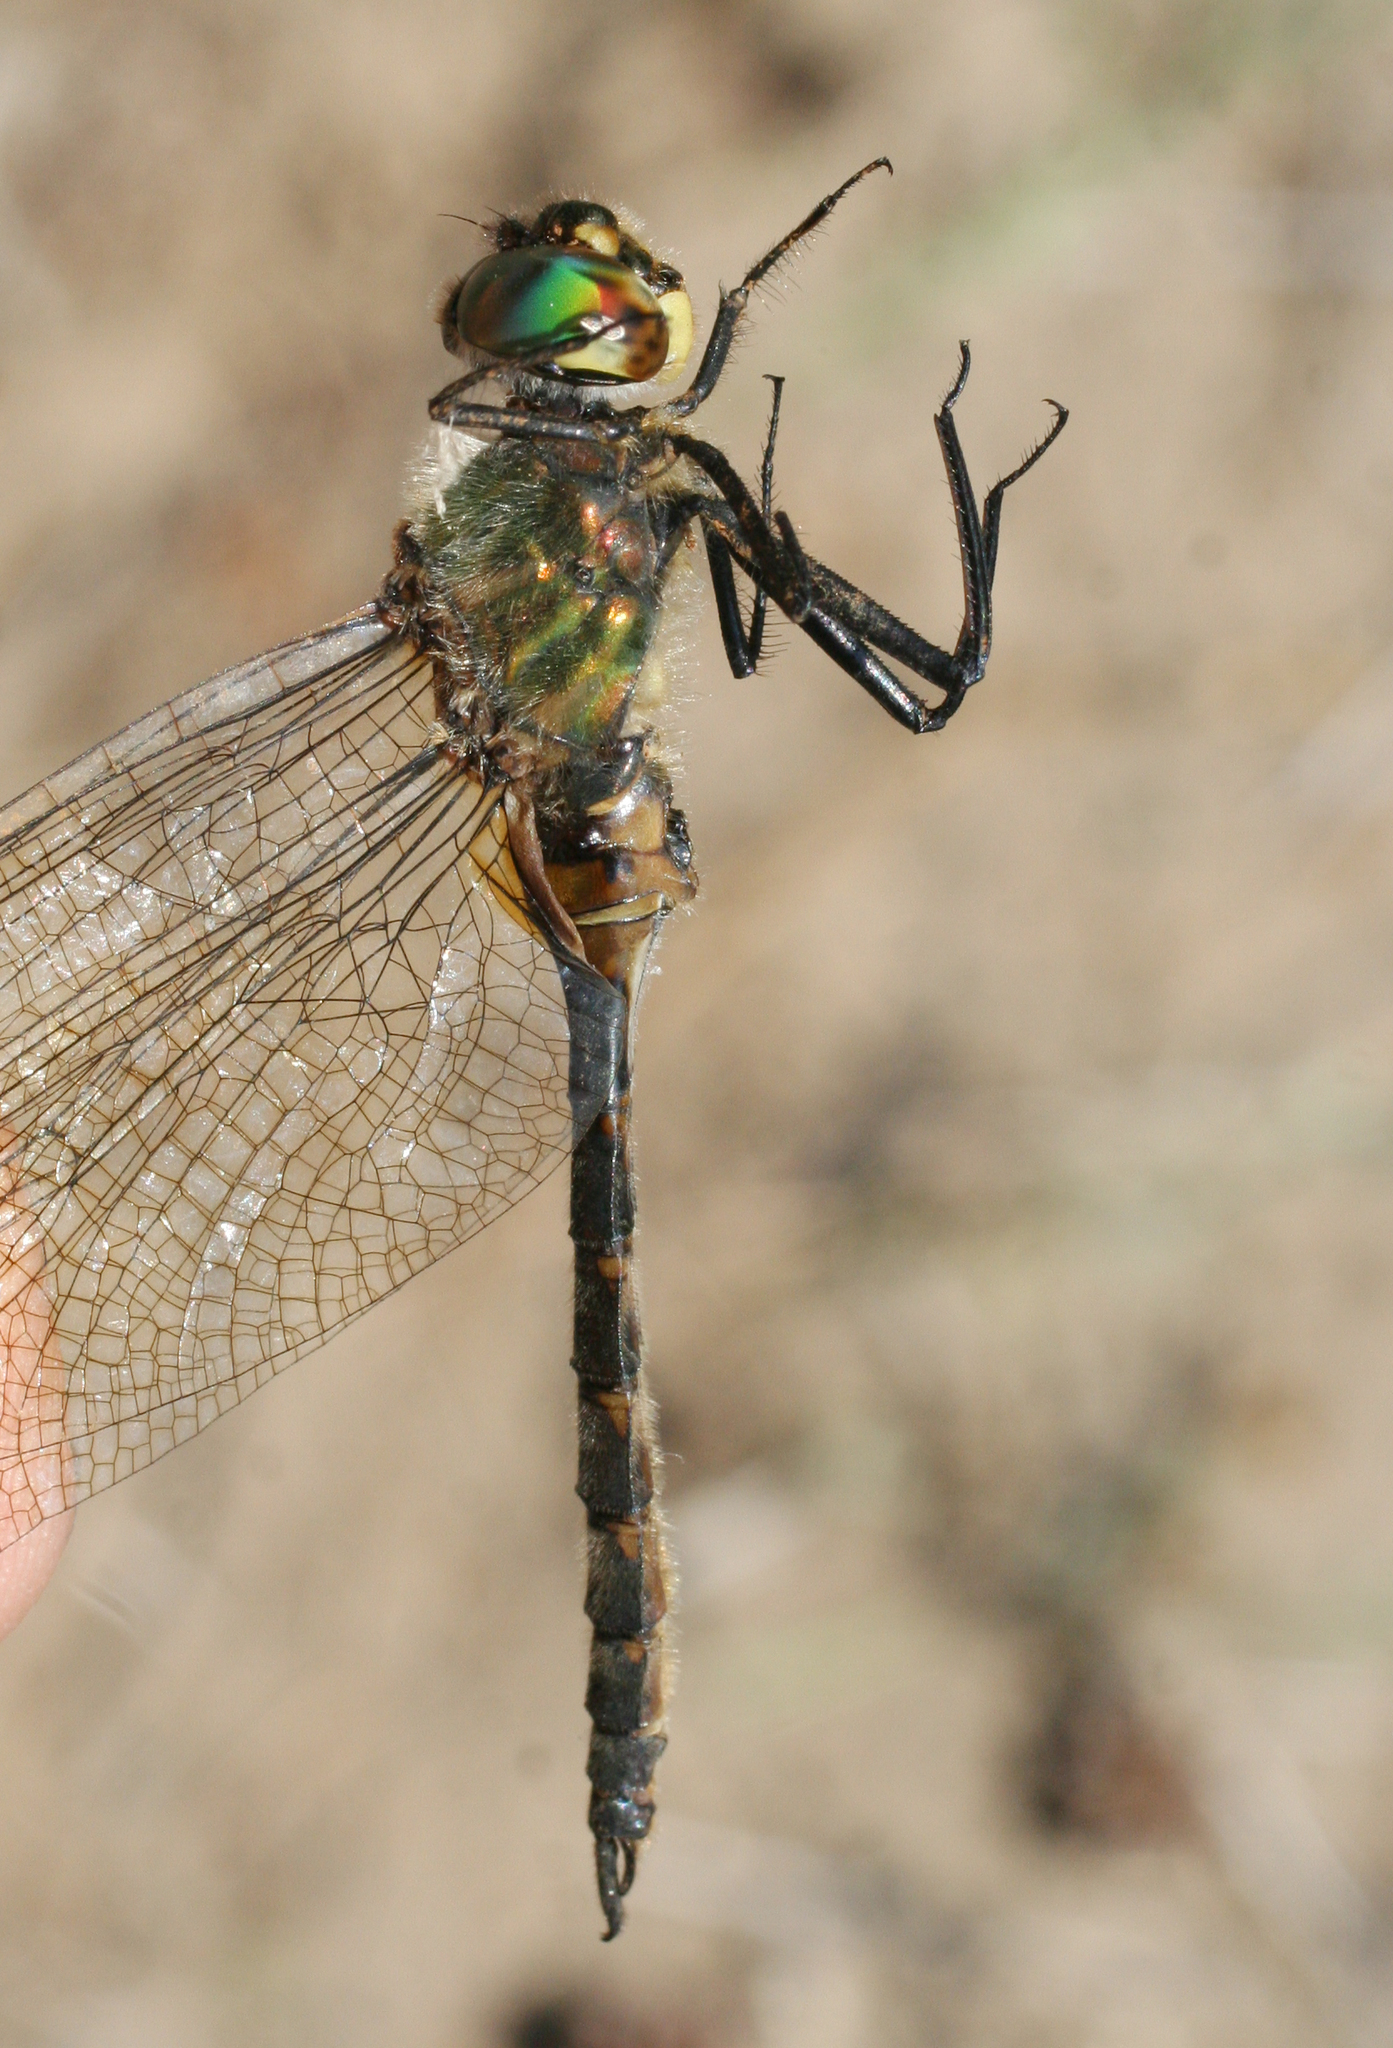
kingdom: Animalia
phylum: Arthropoda
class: Insecta
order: Odonata
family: Corduliidae
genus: Somatochlora
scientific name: Somatochlora flavomaculata
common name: Yellow-spotted emerald
